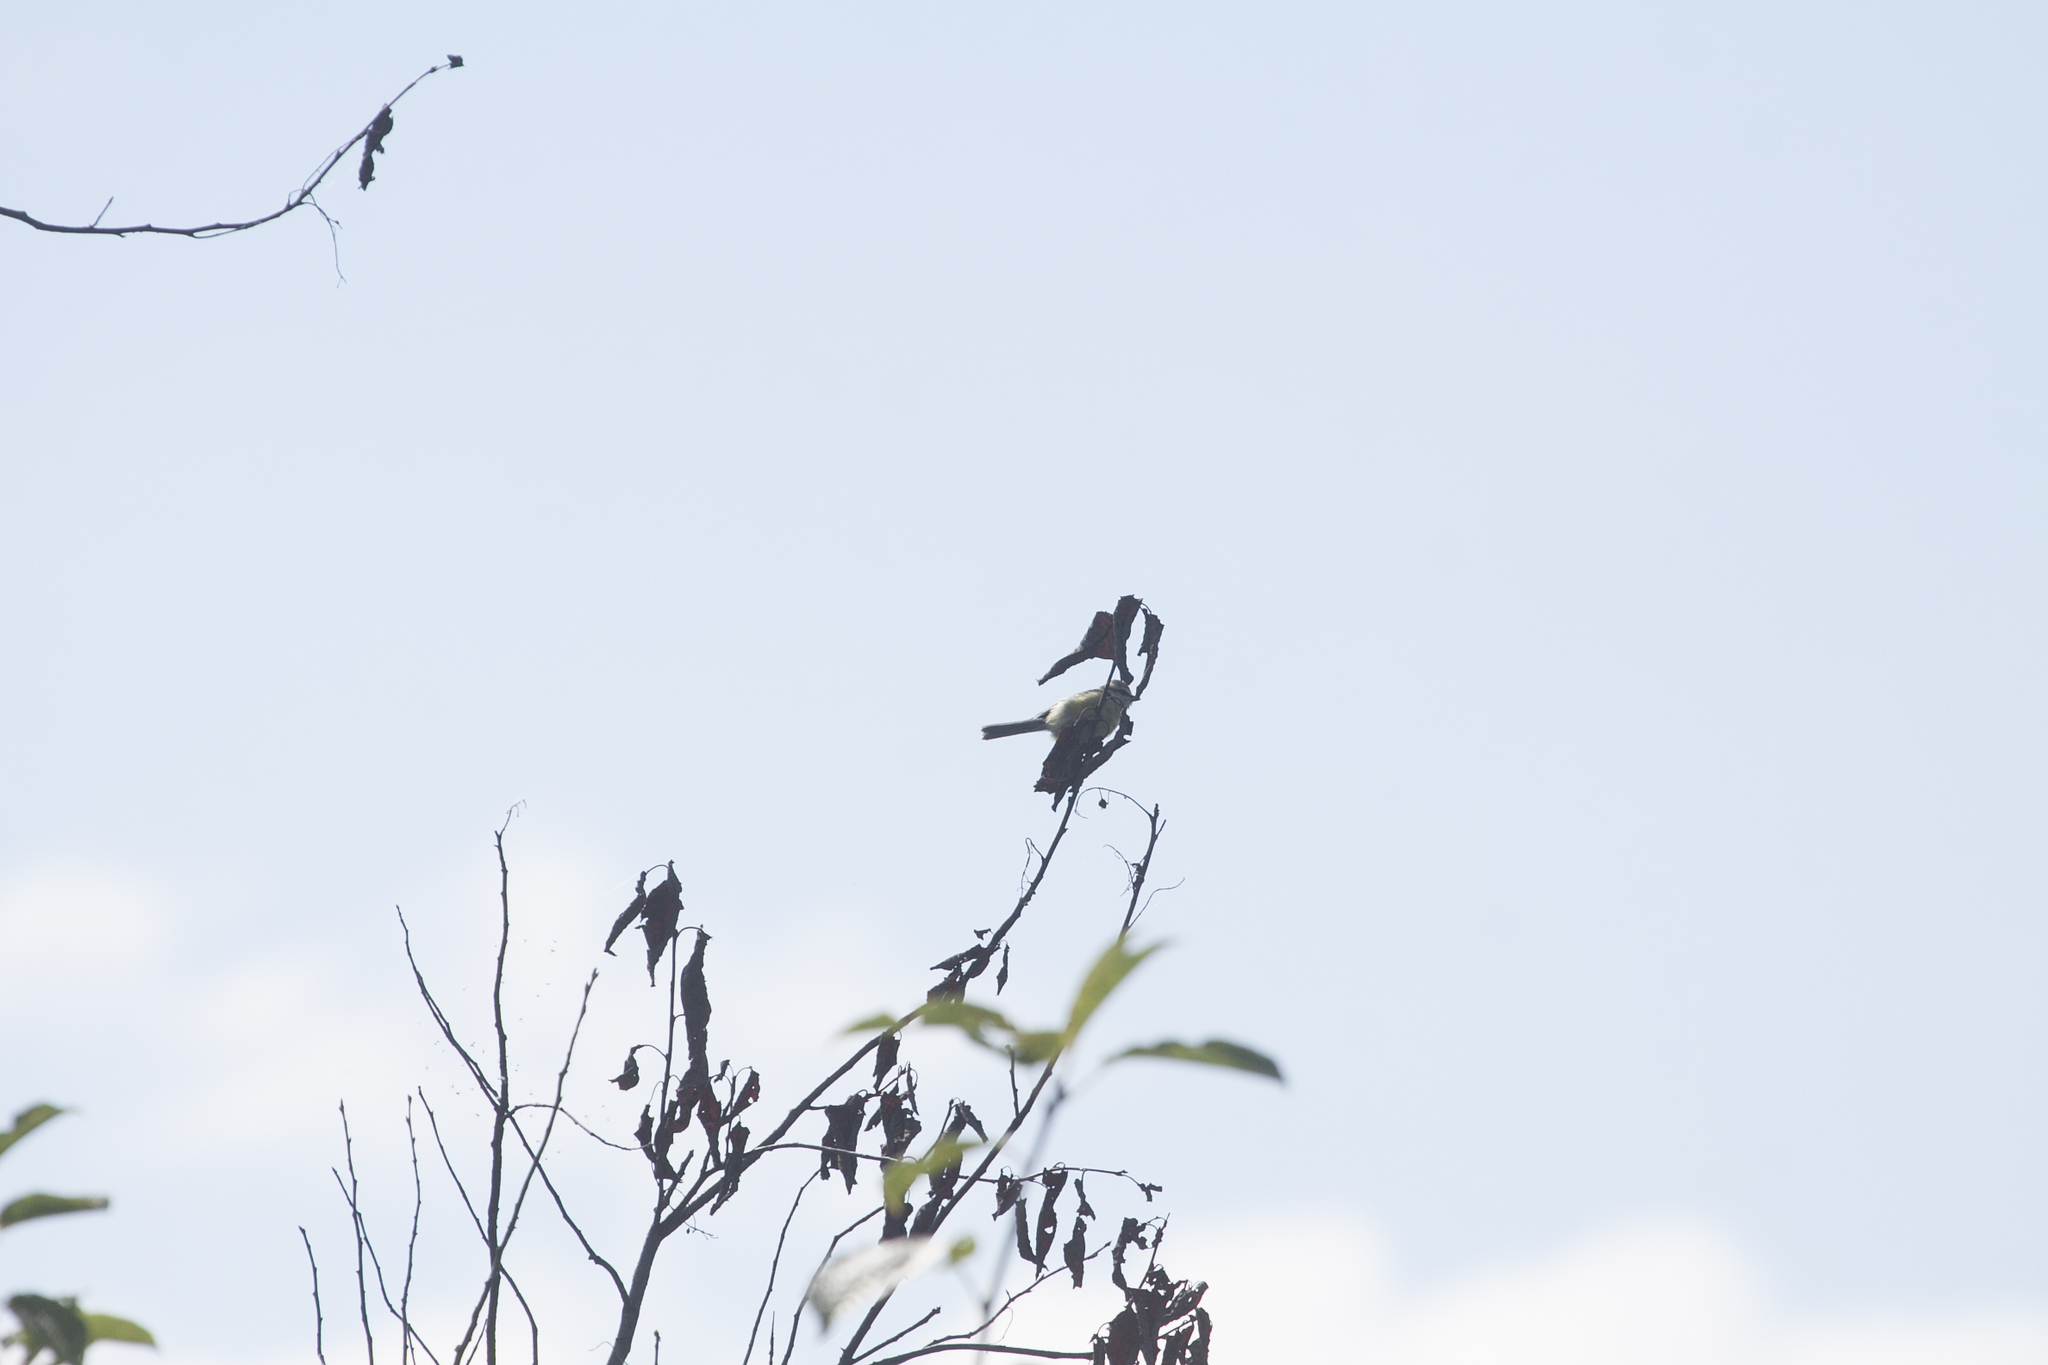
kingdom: Animalia
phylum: Chordata
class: Aves
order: Passeriformes
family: Paridae
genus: Cyanistes
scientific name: Cyanistes caeruleus
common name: Eurasian blue tit
